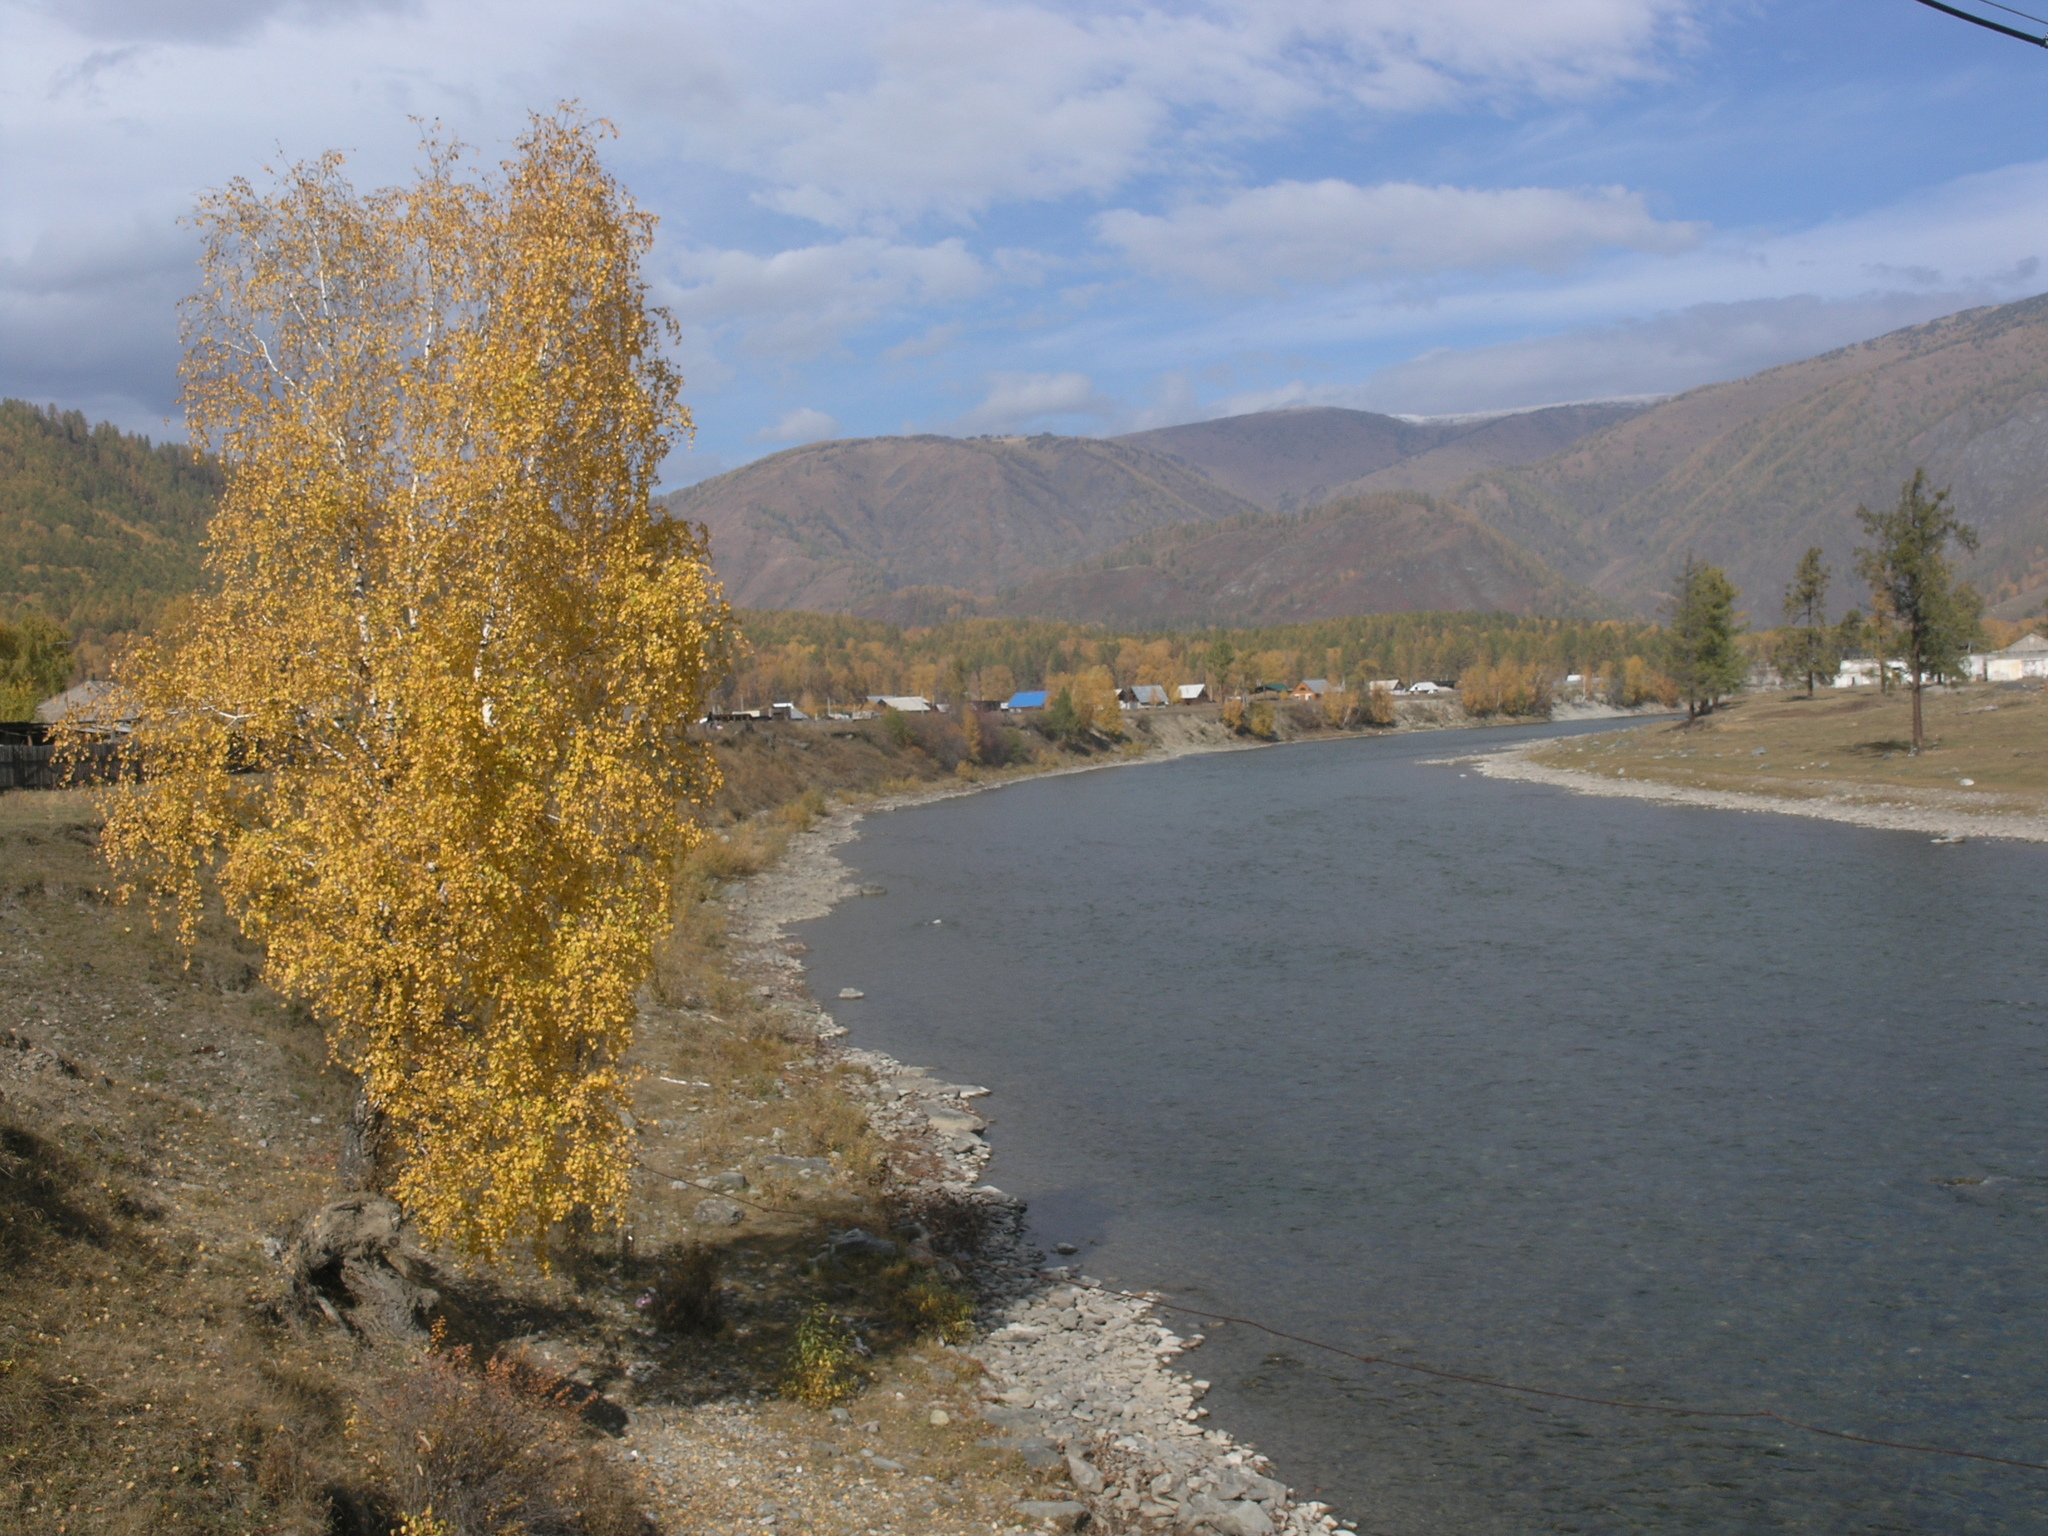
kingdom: Plantae
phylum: Tracheophyta
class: Magnoliopsida
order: Fagales
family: Betulaceae
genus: Betula
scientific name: Betula pendula
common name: Silver birch
